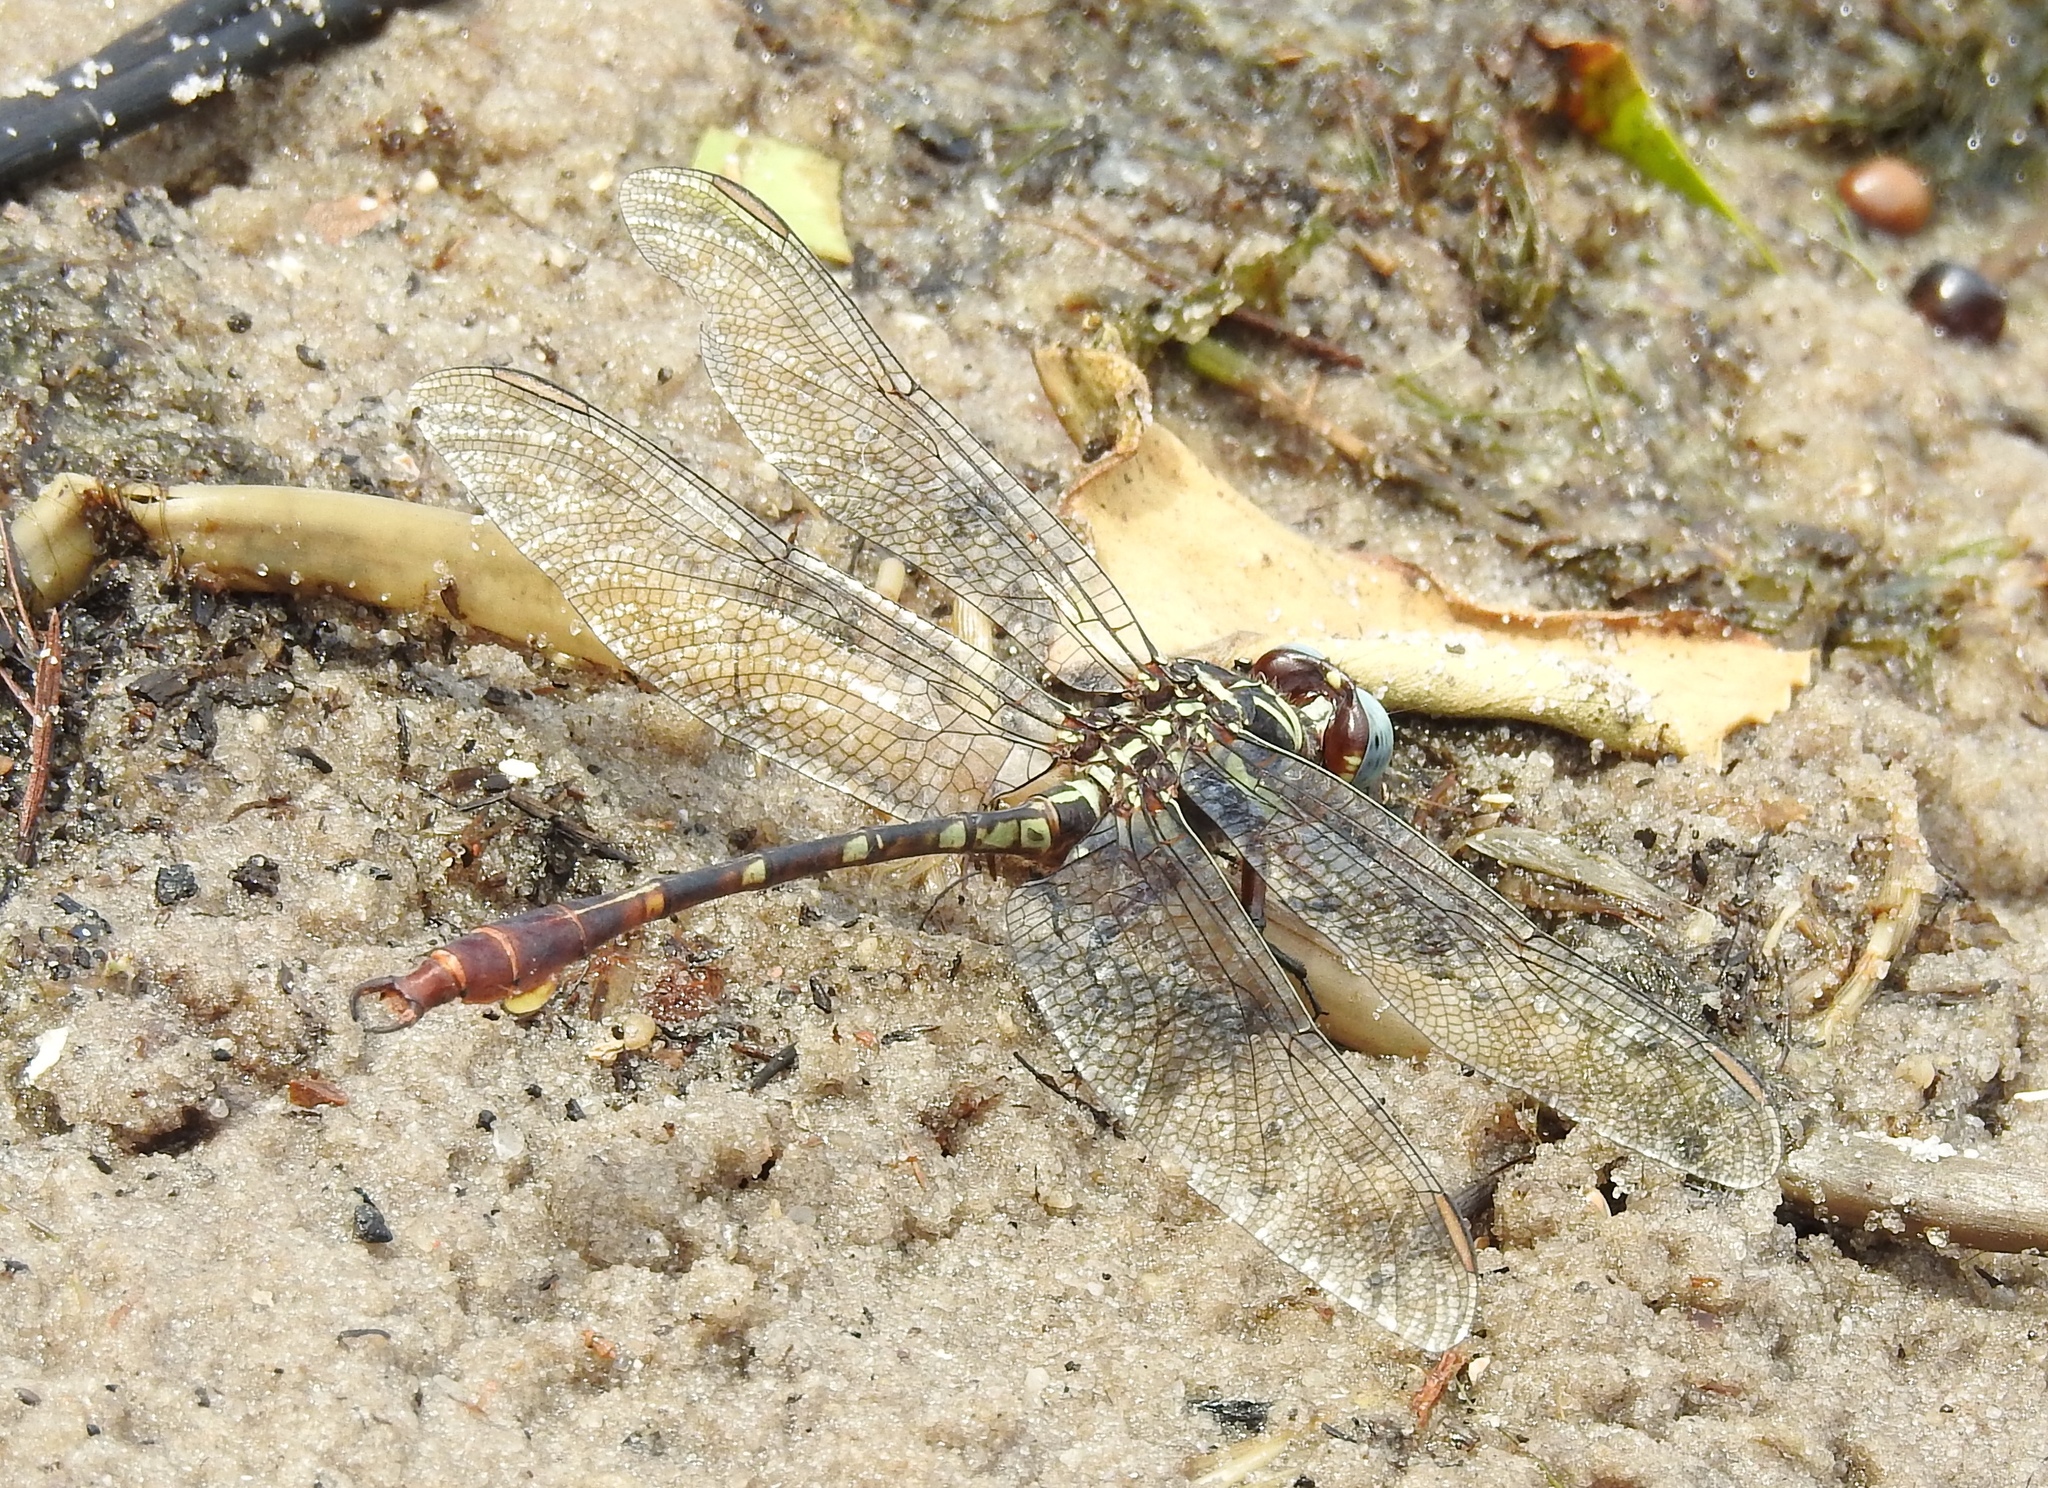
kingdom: Animalia
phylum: Arthropoda
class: Insecta
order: Odonata
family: Gomphidae
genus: Aphylla
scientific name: Aphylla williamsoni
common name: Two-striped forceptail
